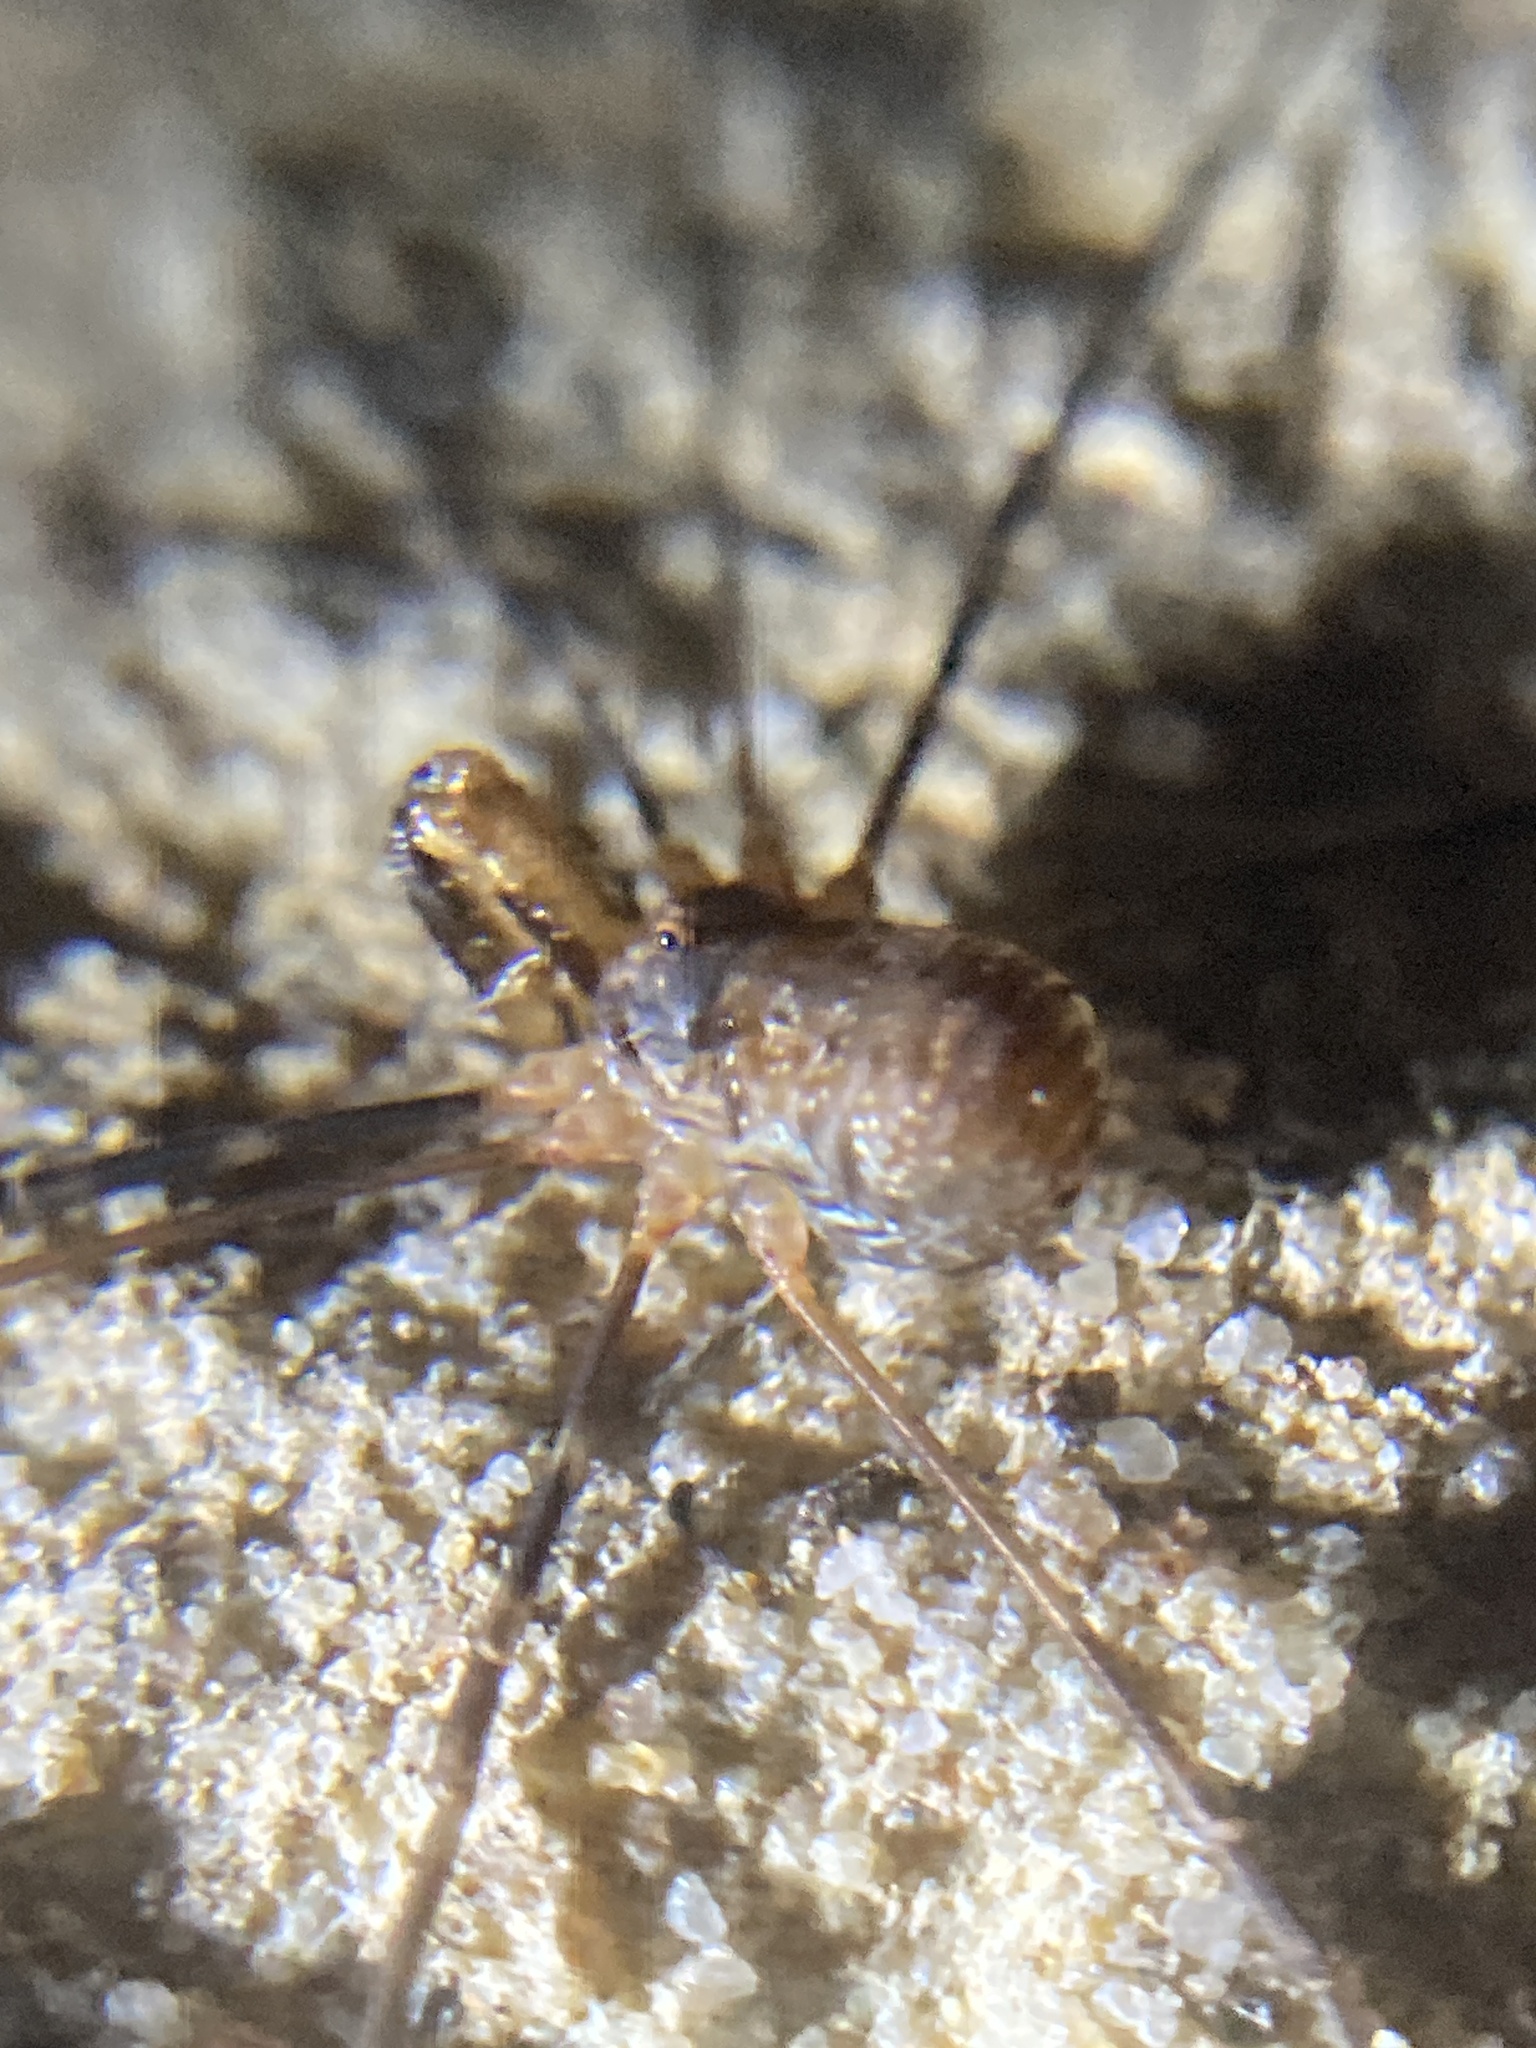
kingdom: Animalia
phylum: Arthropoda
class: Arachnida
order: Opiliones
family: Neopilionidae
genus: Megalopsalis
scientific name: Megalopsalis caeruleomontium
